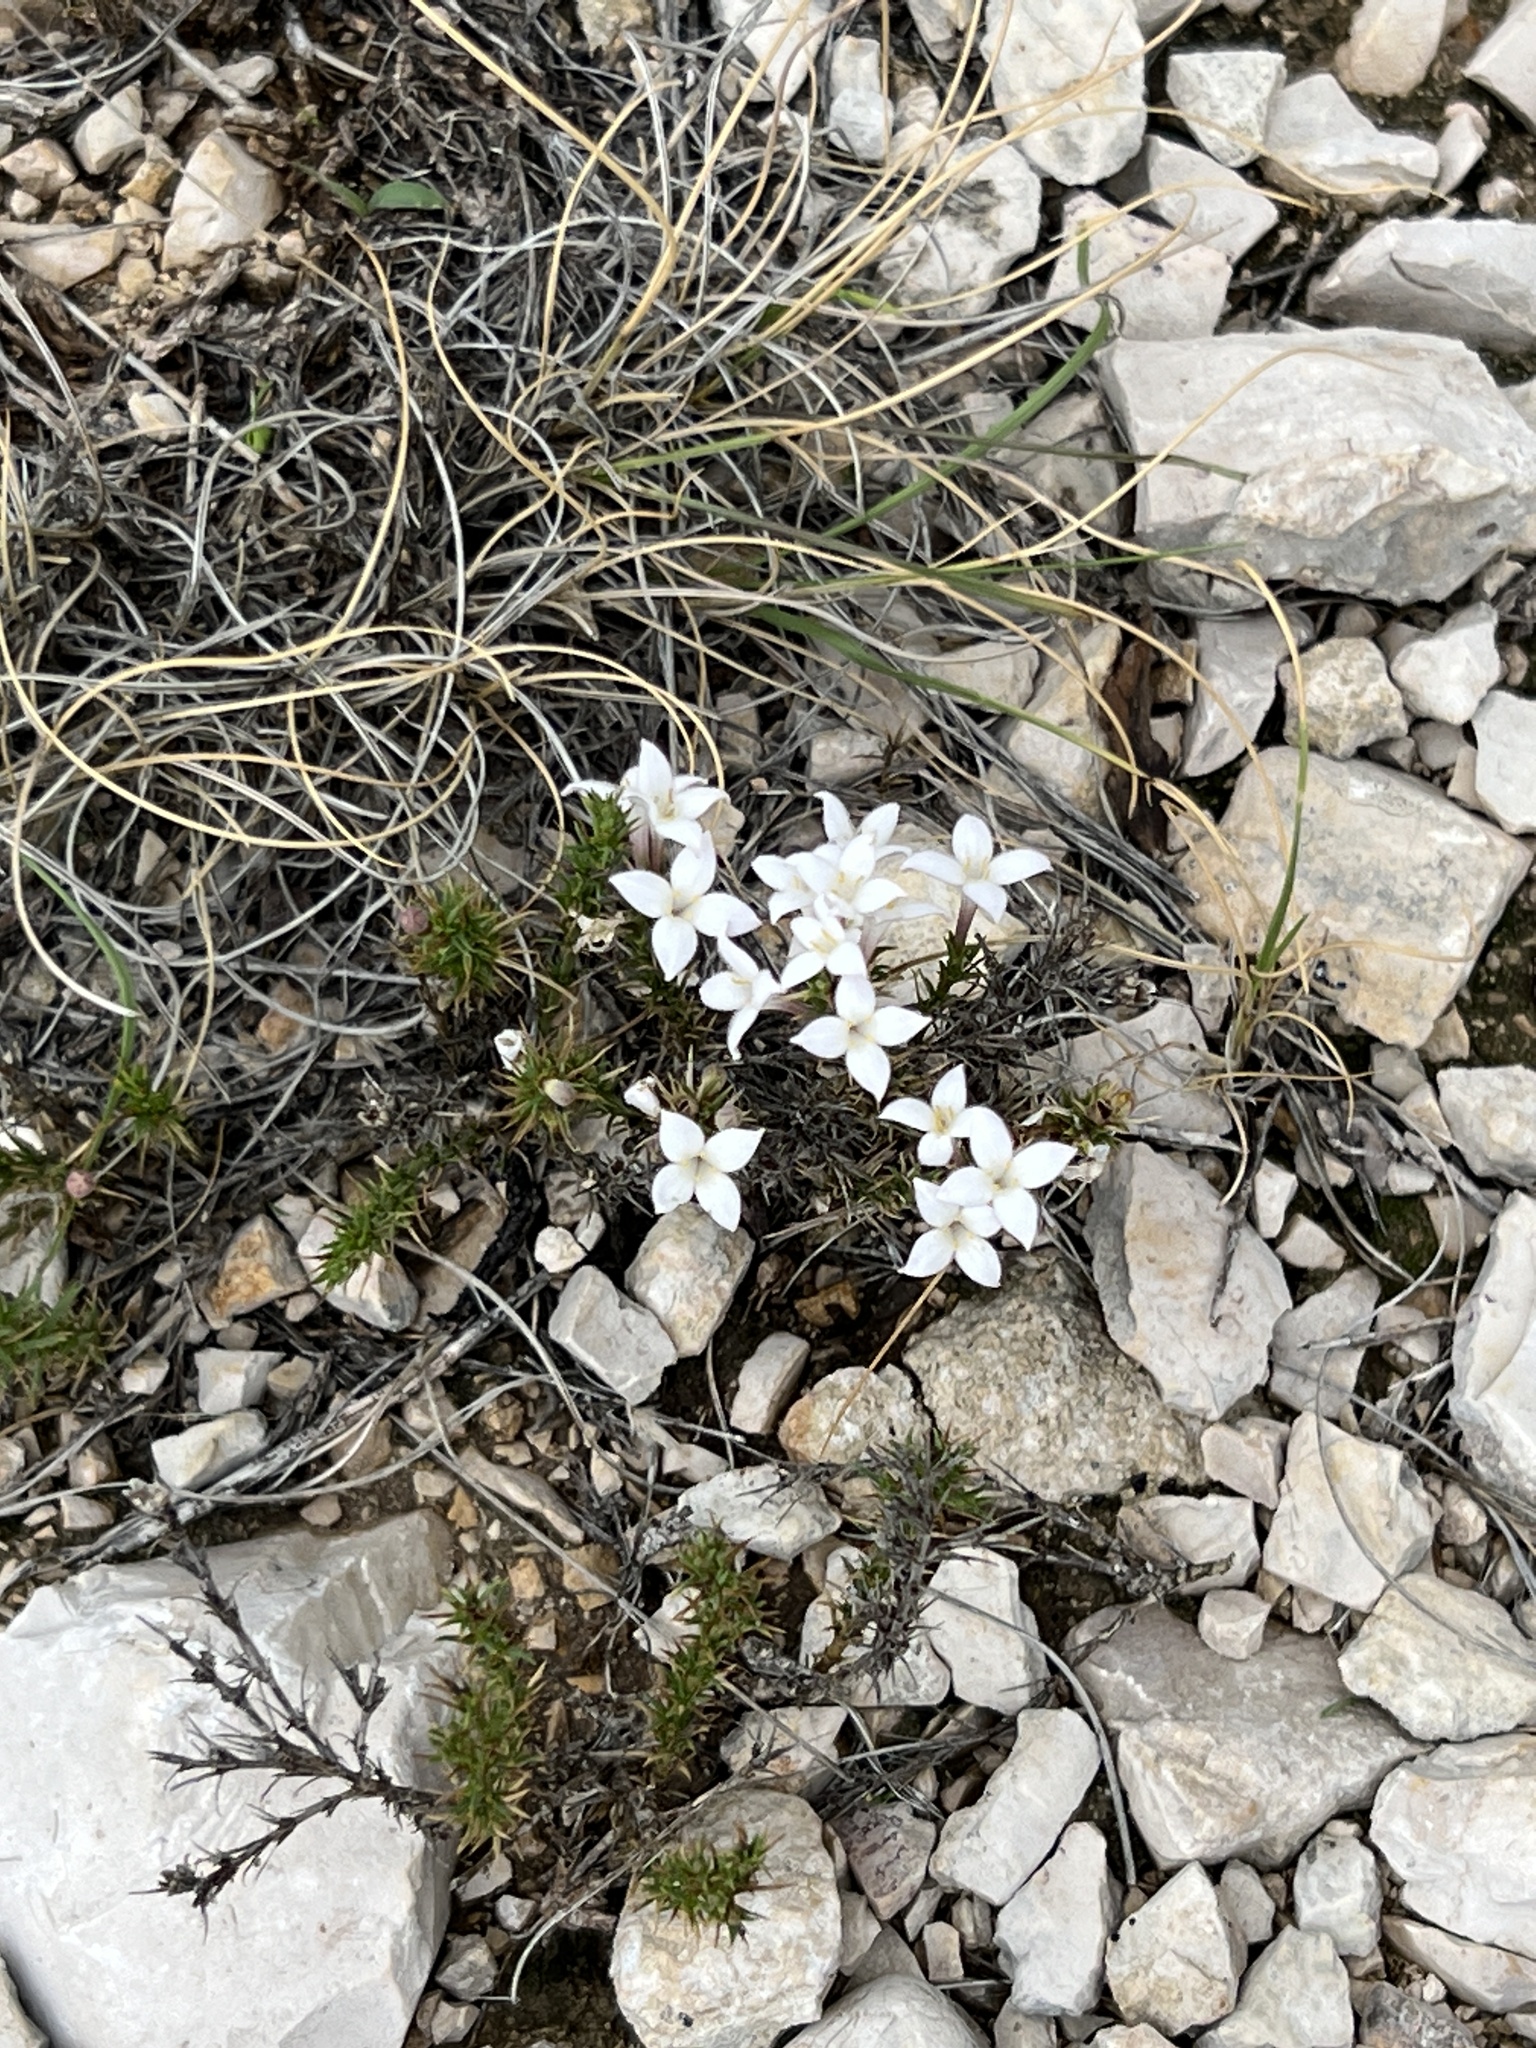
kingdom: Plantae
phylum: Tracheophyta
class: Magnoliopsida
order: Gentianales
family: Rubiaceae
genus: Houstonia
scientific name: Houstonia acerosa
